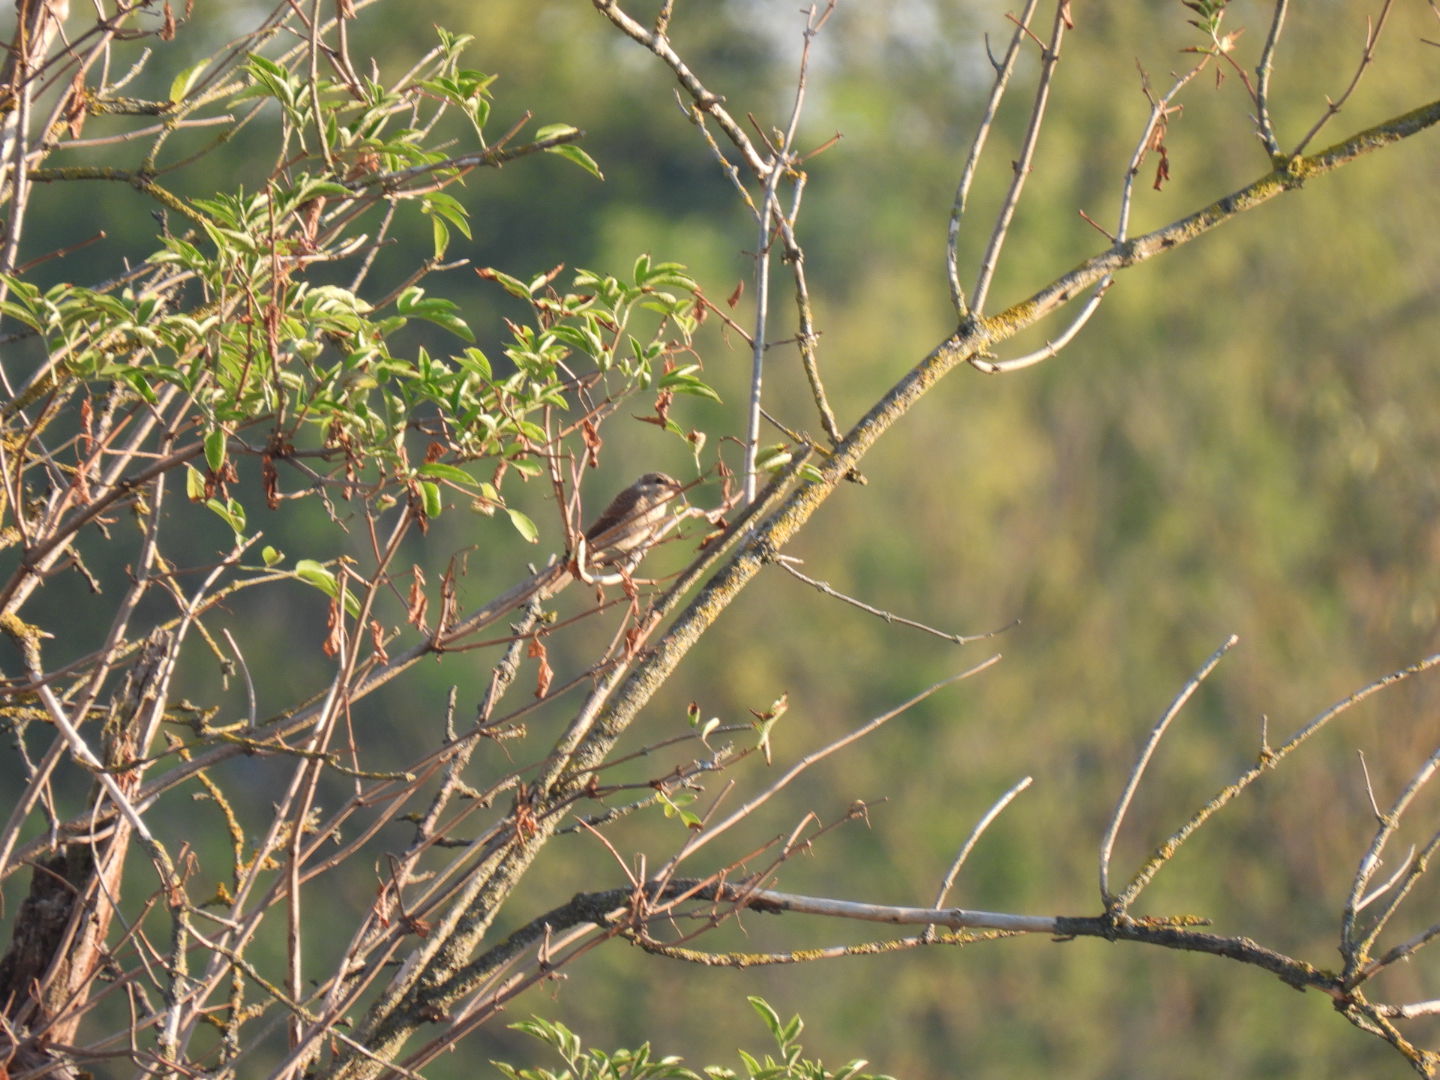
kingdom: Animalia
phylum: Chordata
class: Aves
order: Passeriformes
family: Laniidae
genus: Lanius
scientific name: Lanius collurio
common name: Red-backed shrike
